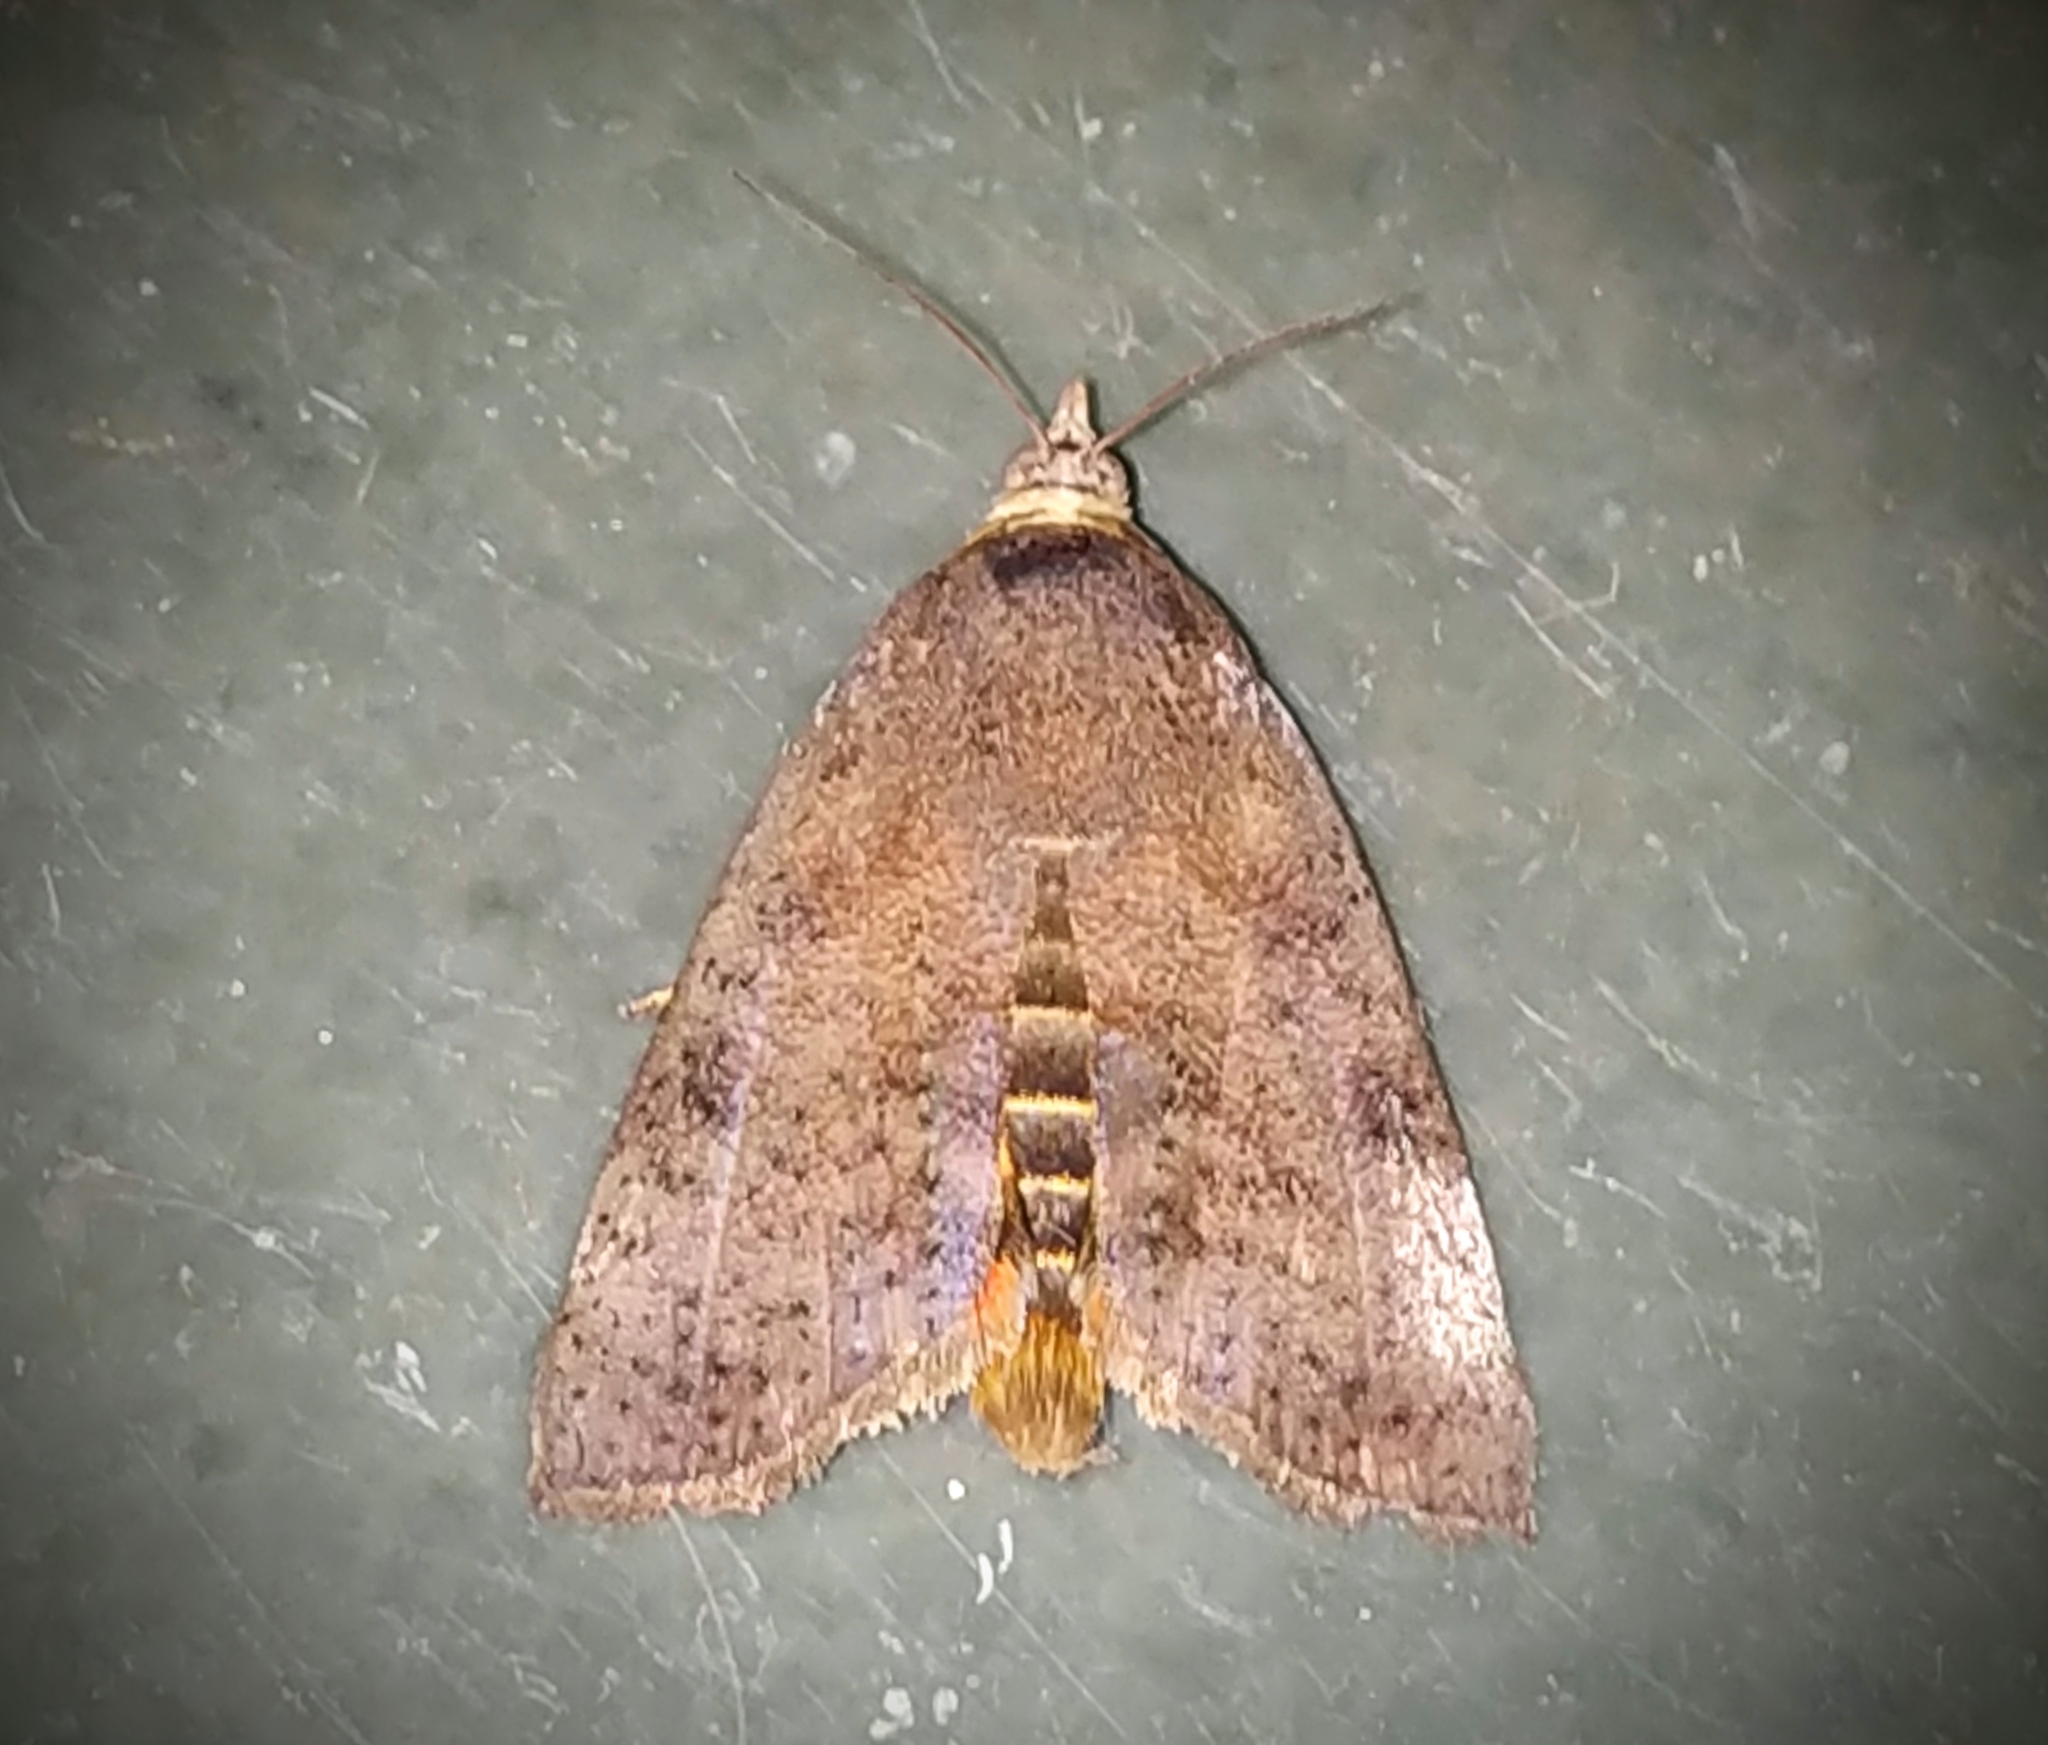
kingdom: Animalia
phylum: Arthropoda
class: Insecta
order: Lepidoptera
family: Hyblaeidae
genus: Hyblaea
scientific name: Hyblaea puera
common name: Teak defoliator moth
